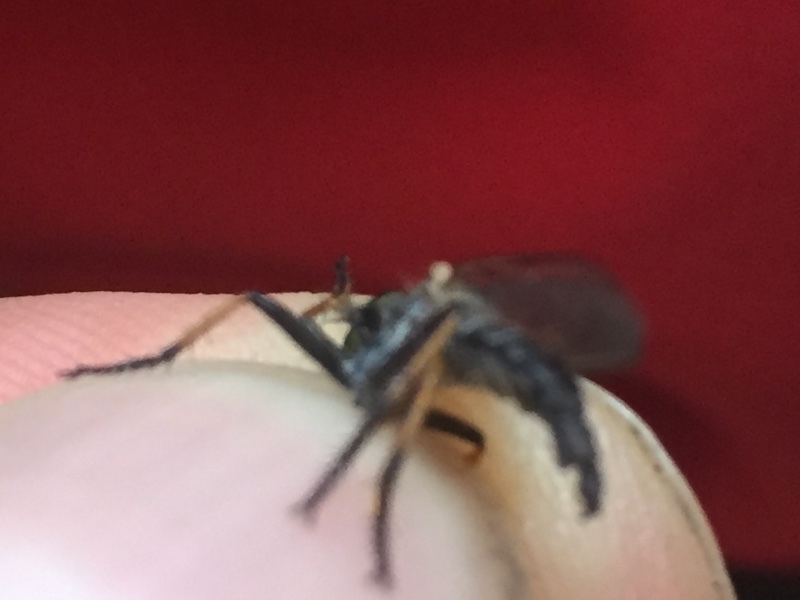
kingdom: Animalia
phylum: Arthropoda
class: Insecta
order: Diptera
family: Asilidae
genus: Neoitamus
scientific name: Neoitamus cyanurus
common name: Common awl robberfly
